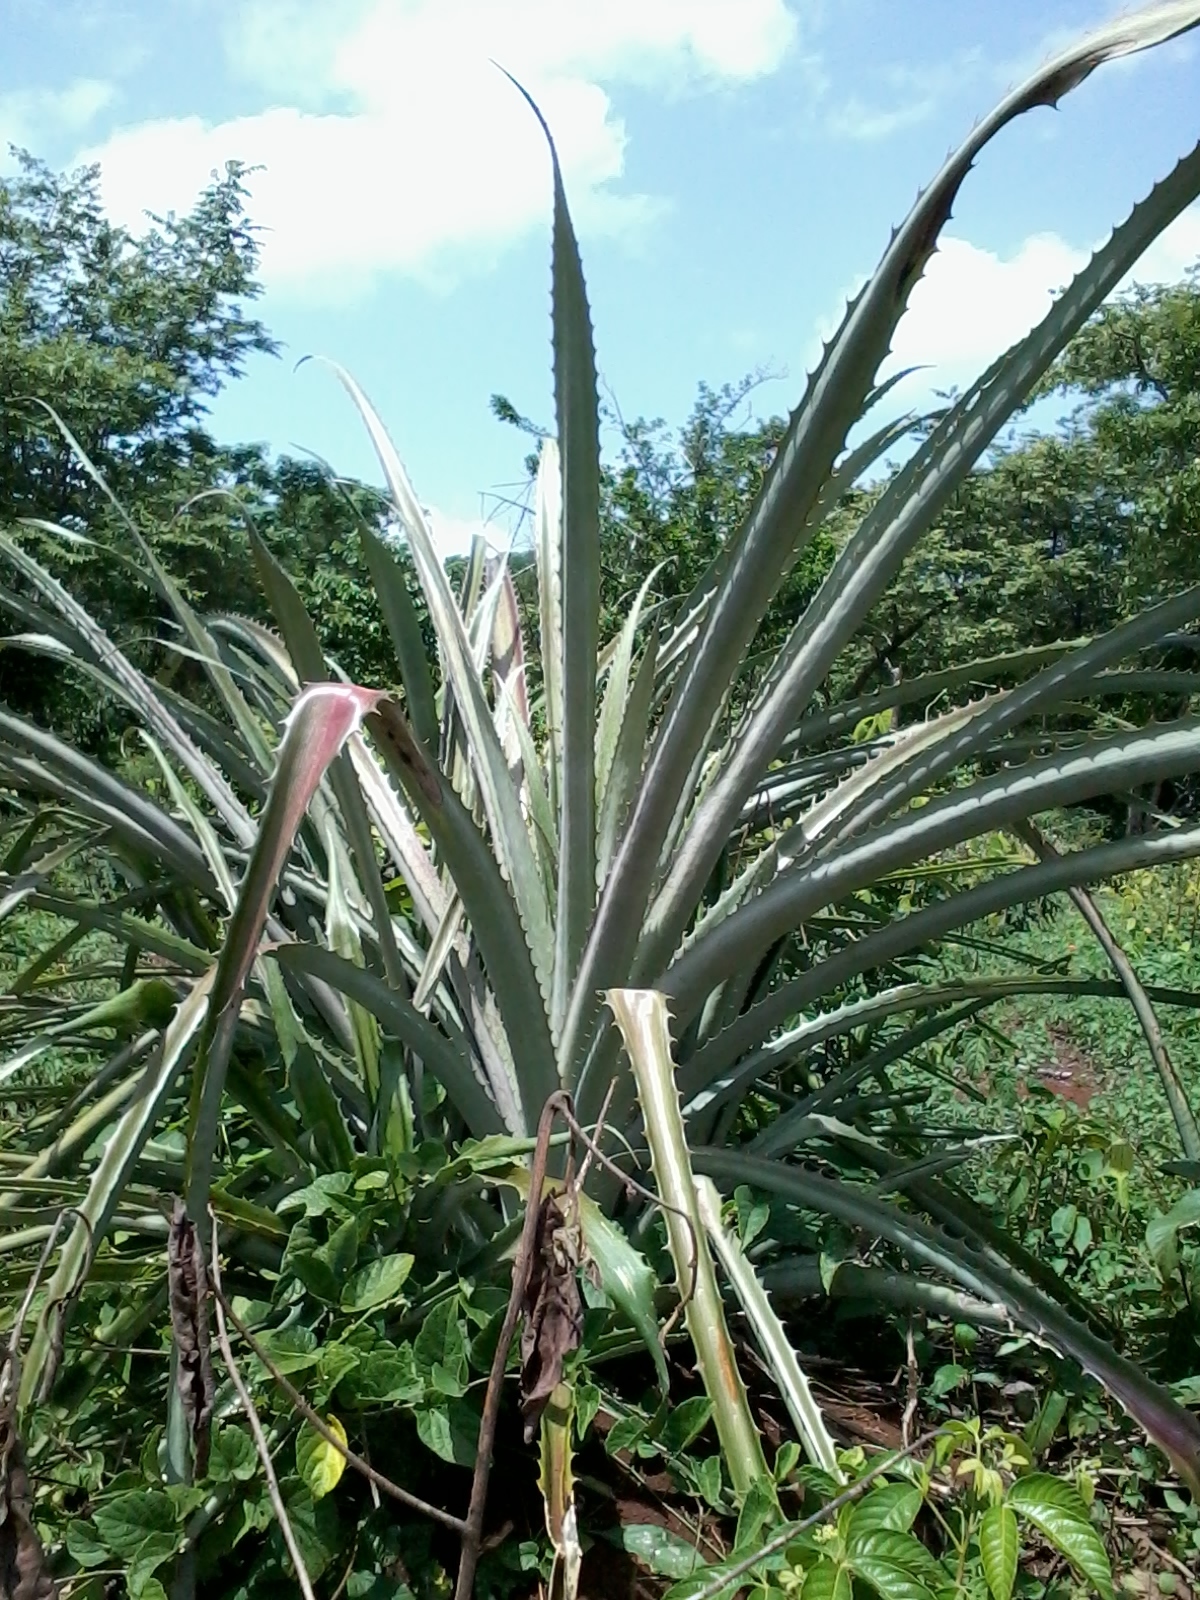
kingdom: Plantae
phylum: Tracheophyta
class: Liliopsida
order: Poales
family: Bromeliaceae
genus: Bromelia
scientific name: Bromelia karatas
